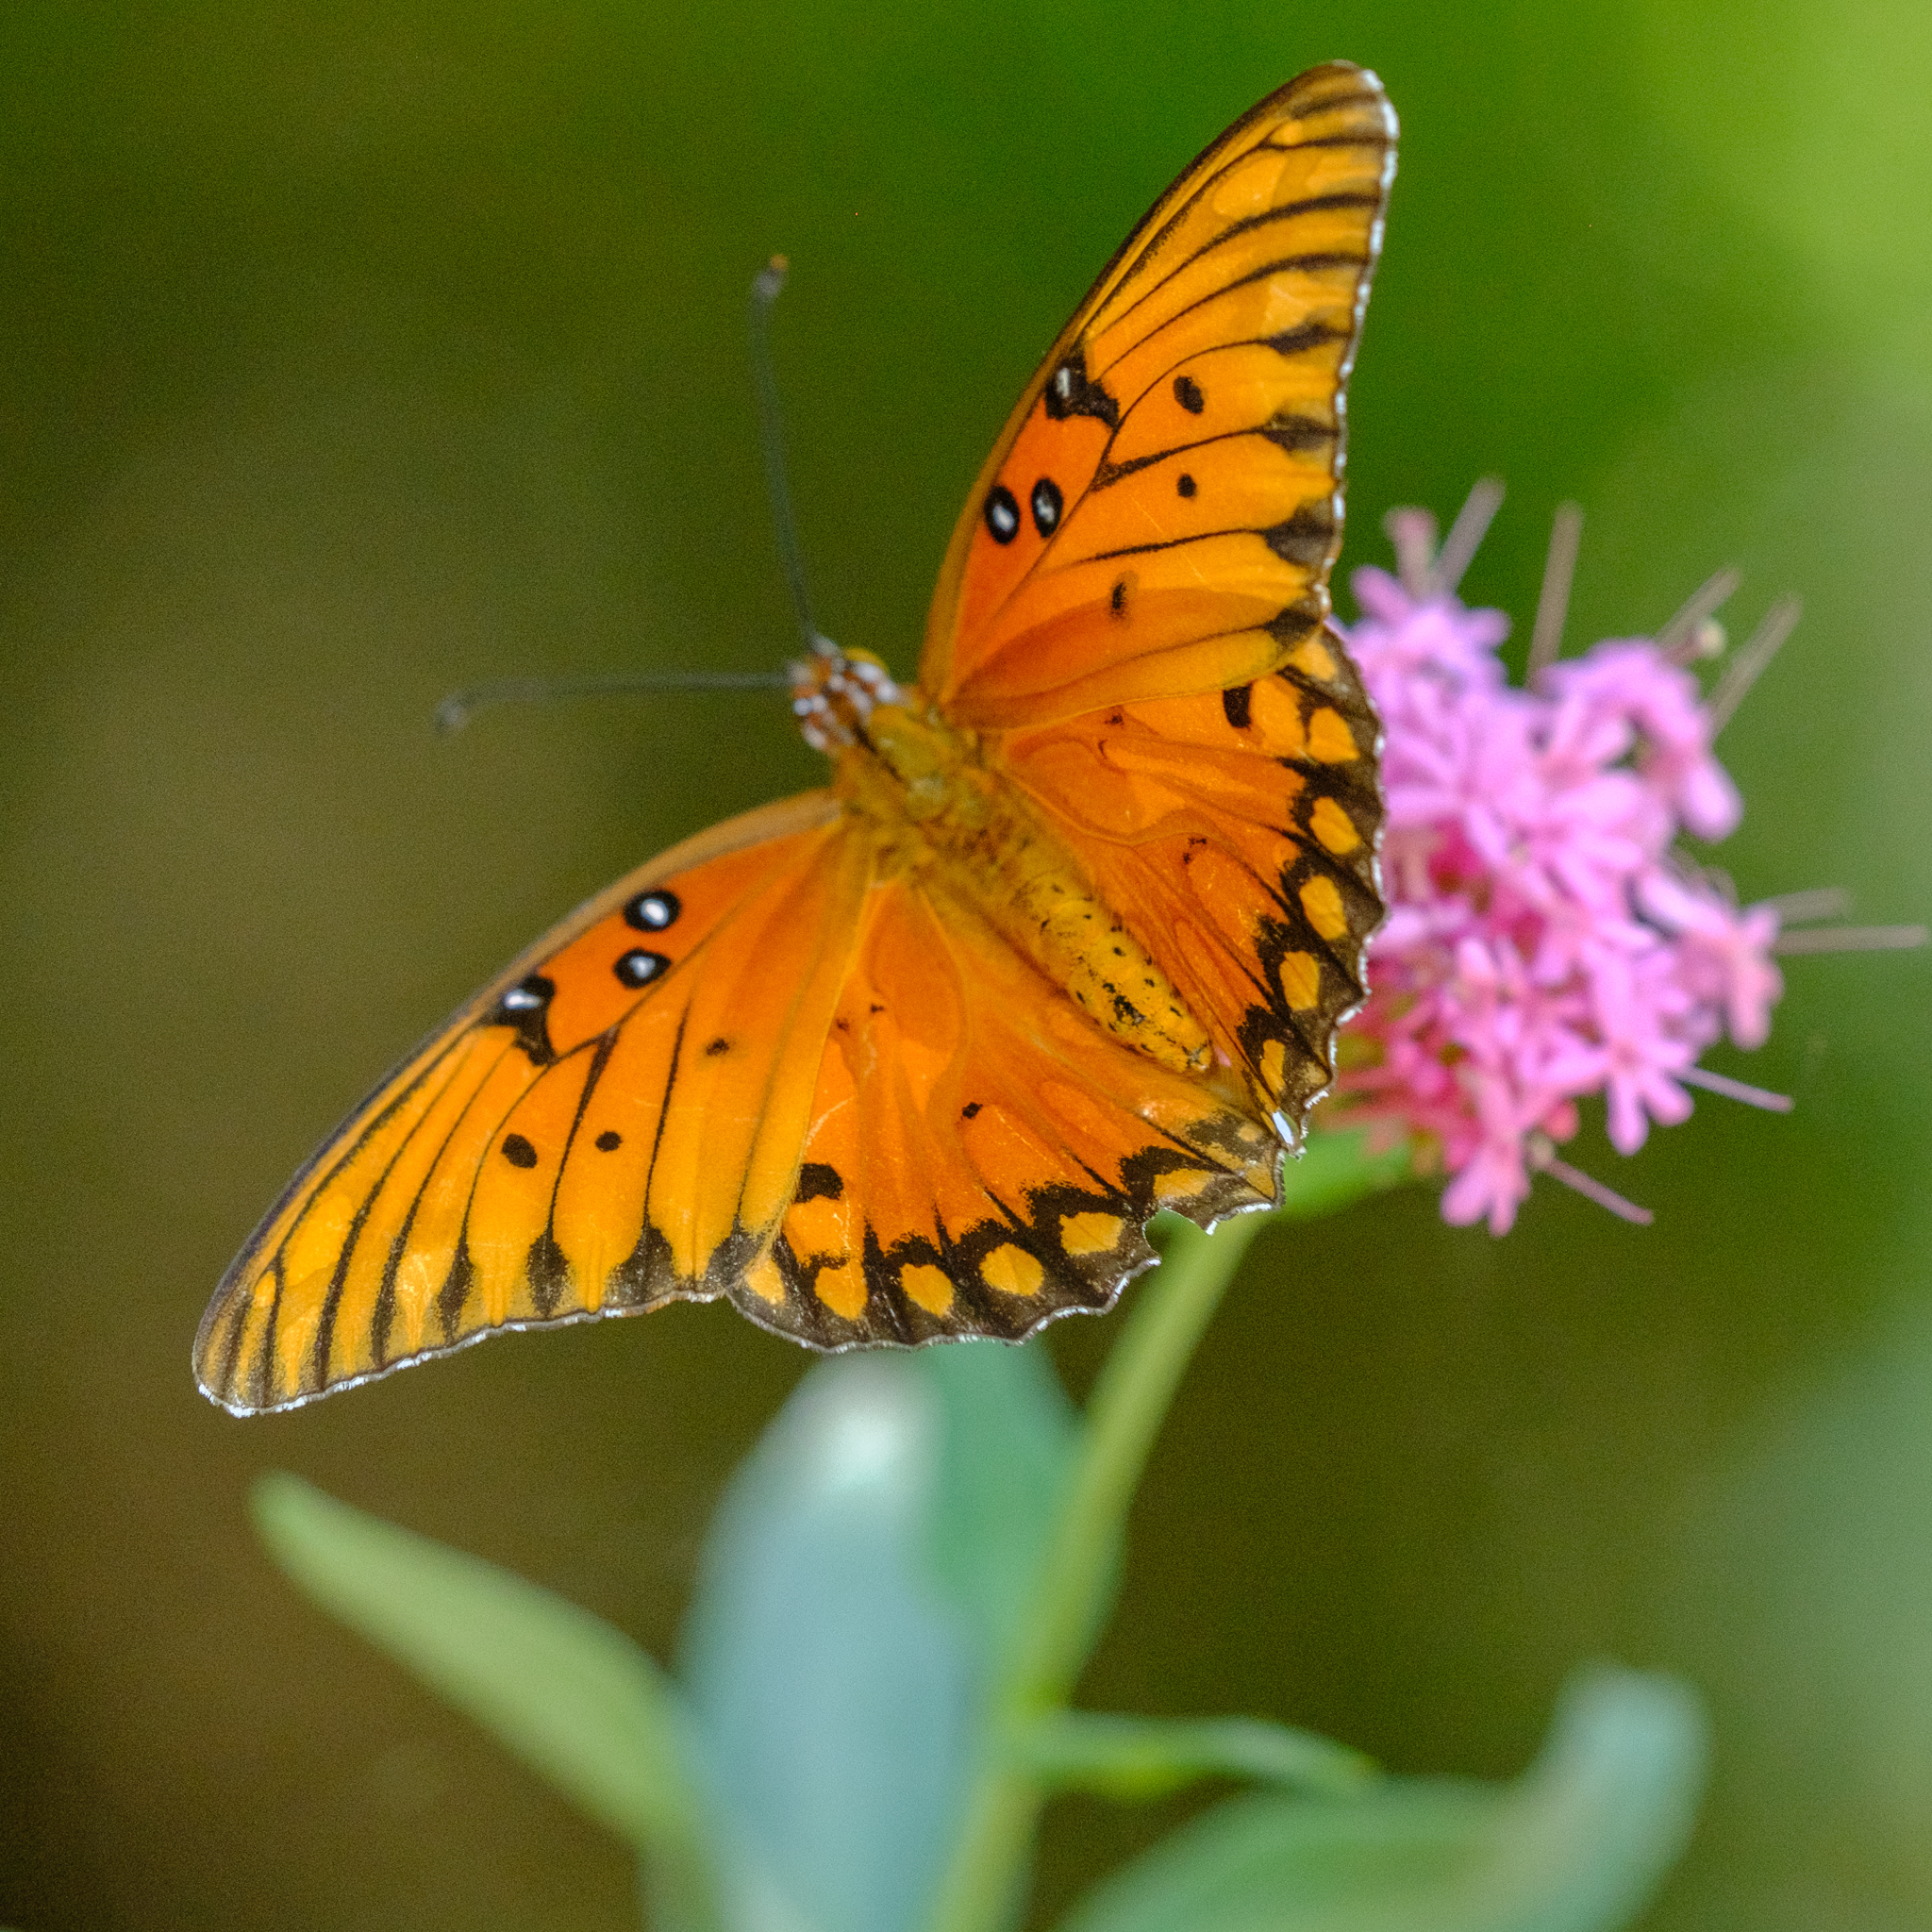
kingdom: Animalia
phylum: Arthropoda
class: Insecta
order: Lepidoptera
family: Nymphalidae
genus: Dione
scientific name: Dione vanillae
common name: Gulf fritillary
